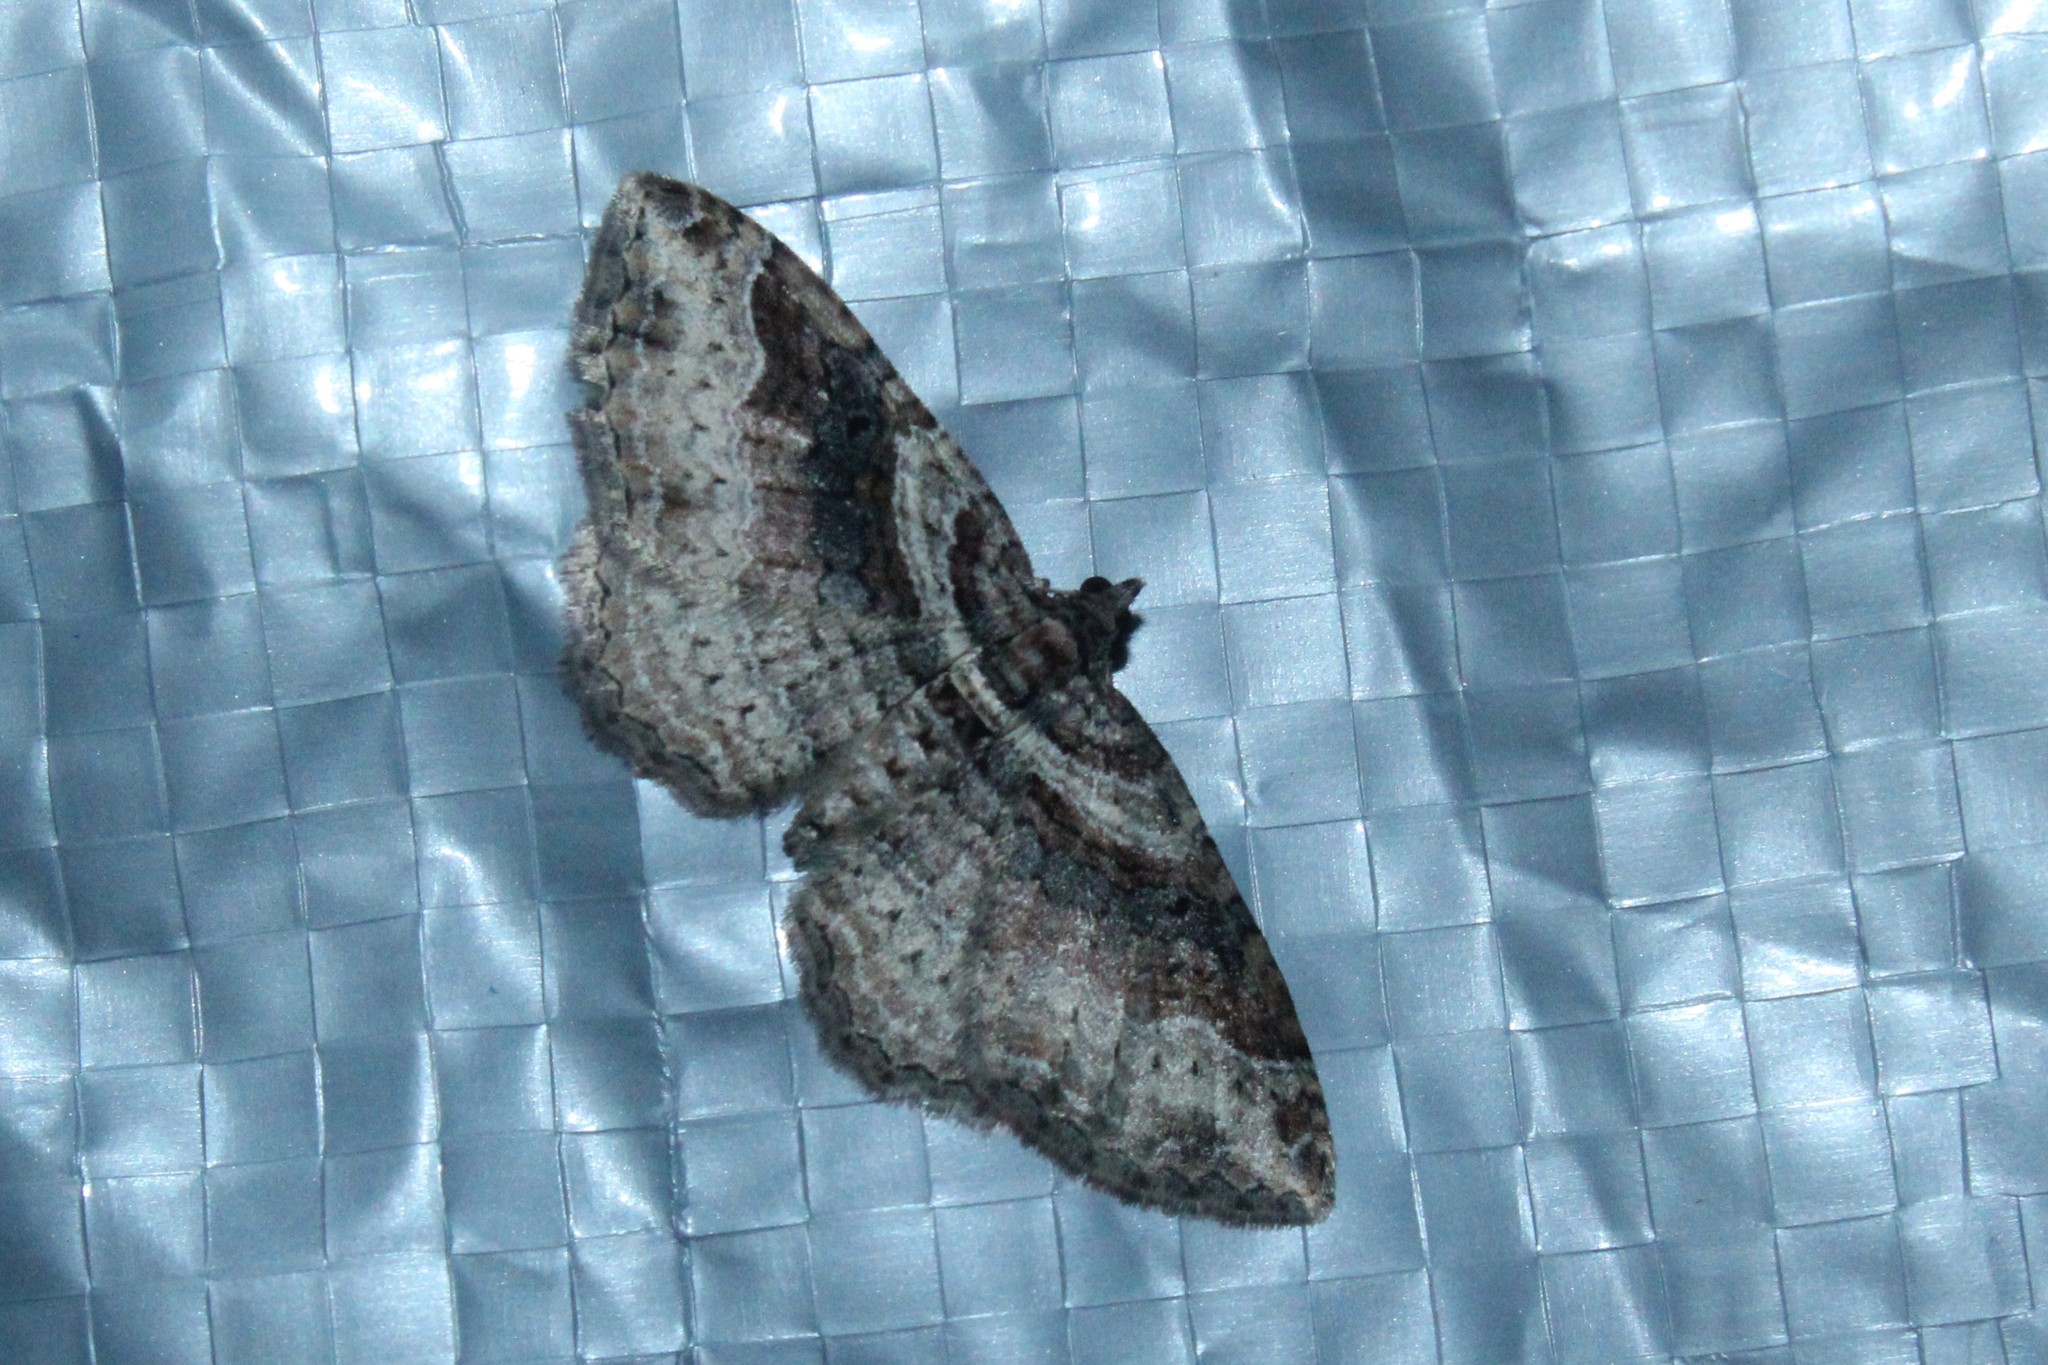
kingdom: Animalia
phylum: Arthropoda
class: Insecta
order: Lepidoptera
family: Geometridae
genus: Costaconvexa
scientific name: Costaconvexa centrostrigaria
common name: Bent-line carpet
